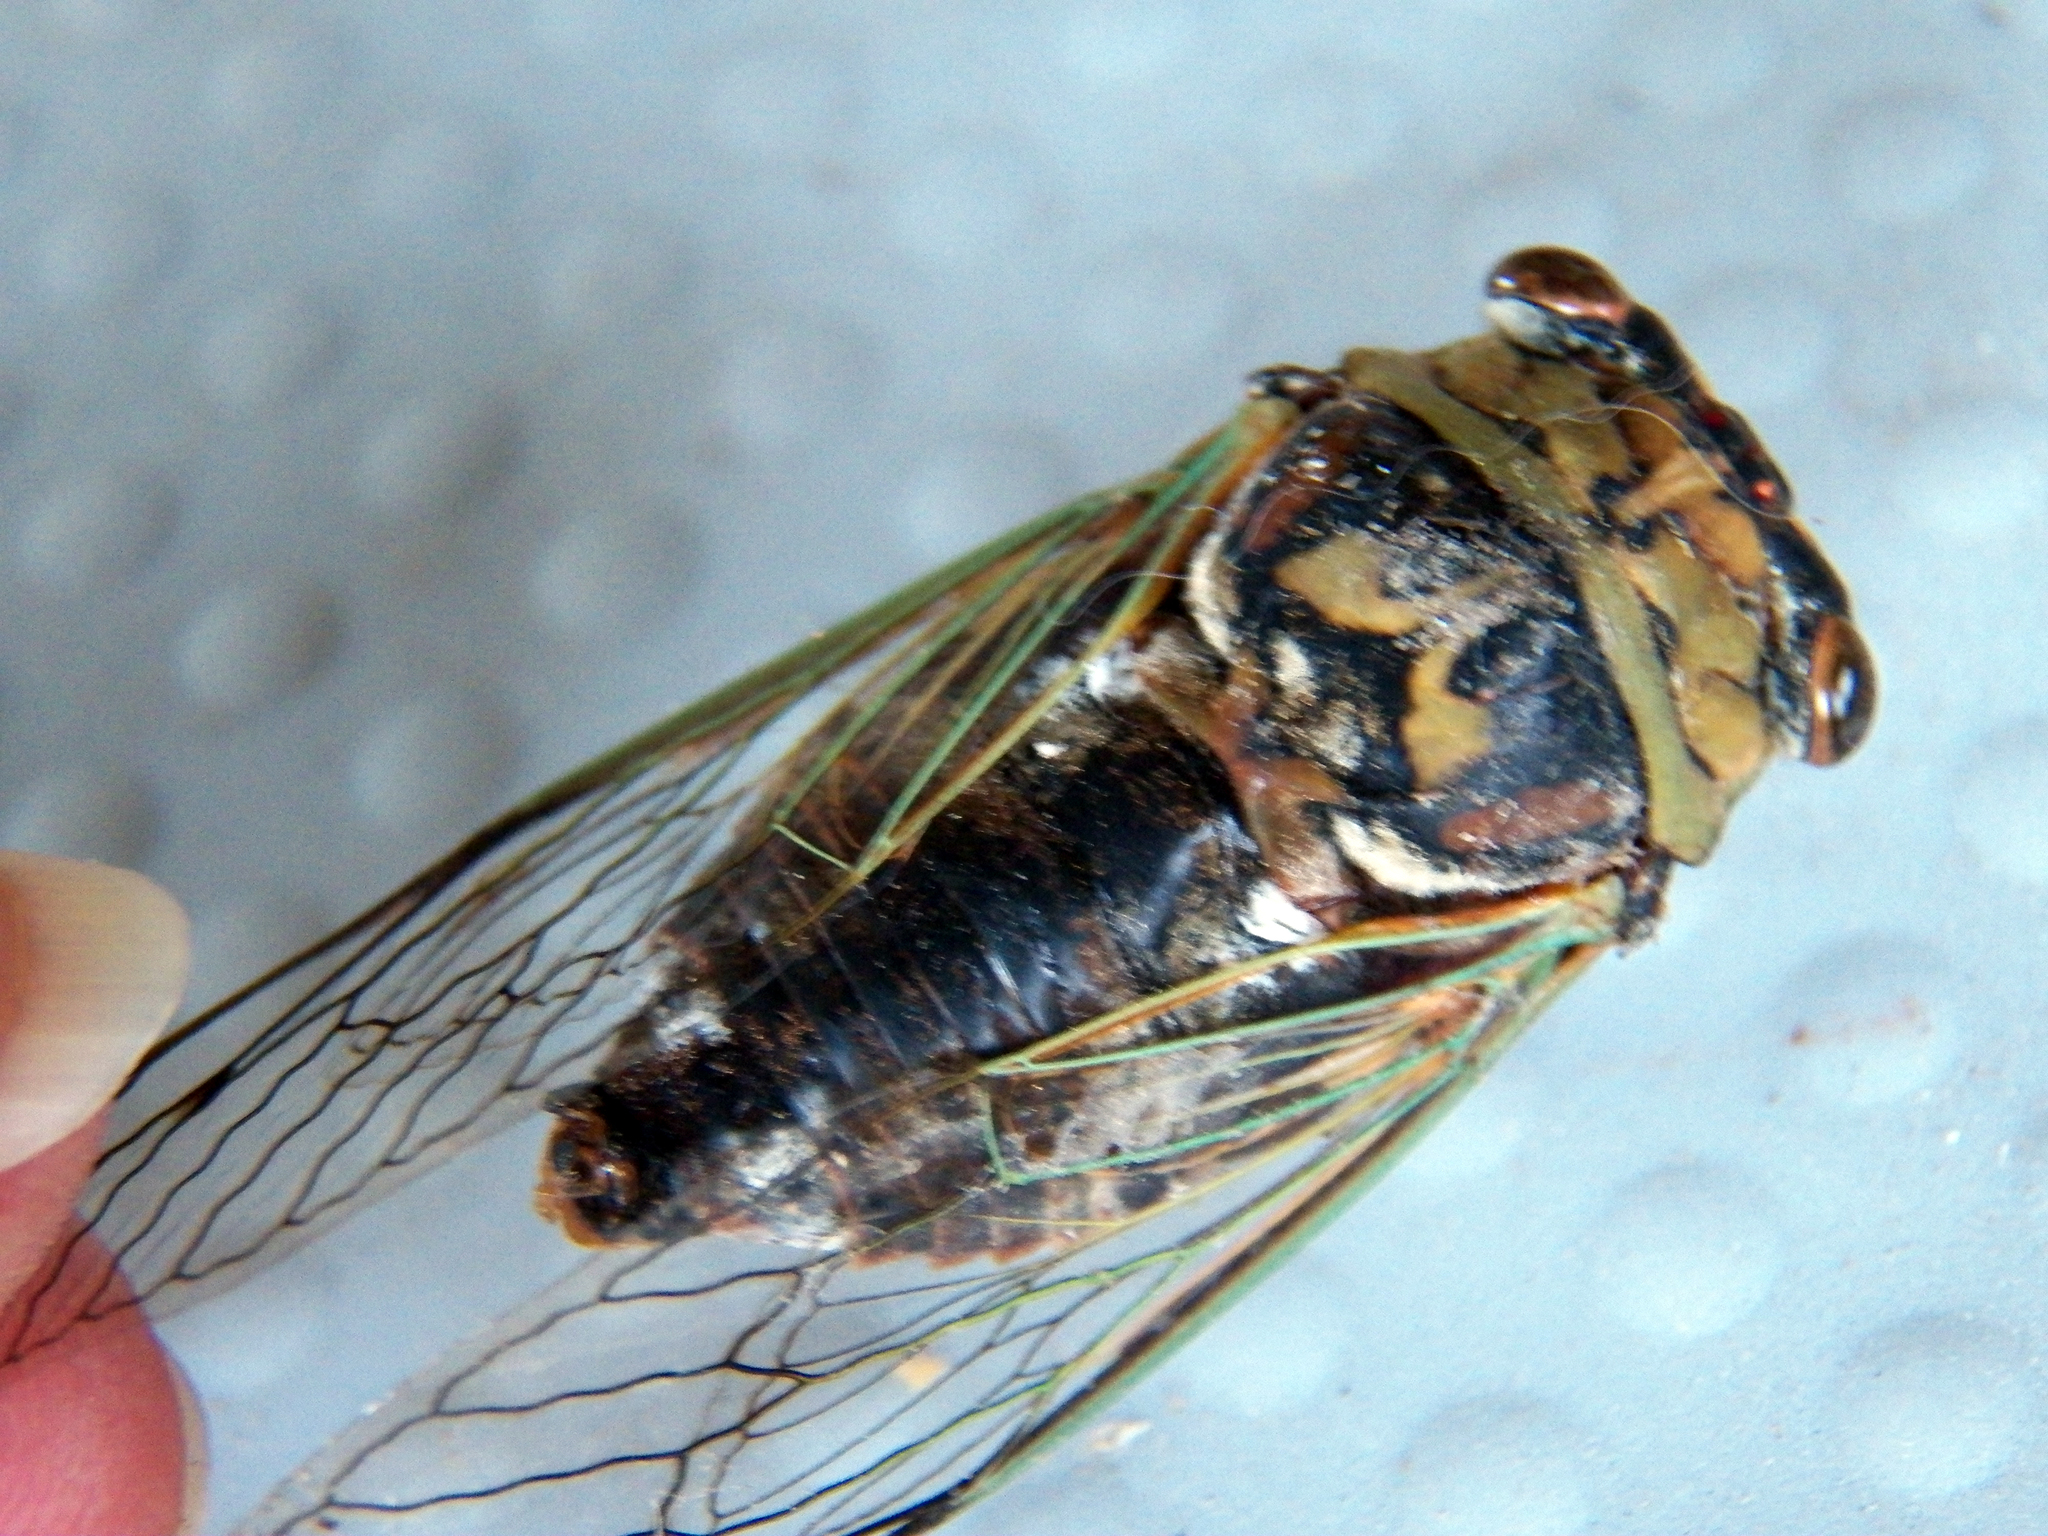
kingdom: Animalia
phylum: Arthropoda
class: Insecta
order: Hemiptera
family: Cicadidae
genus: Megatibicen
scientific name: Megatibicen resh
